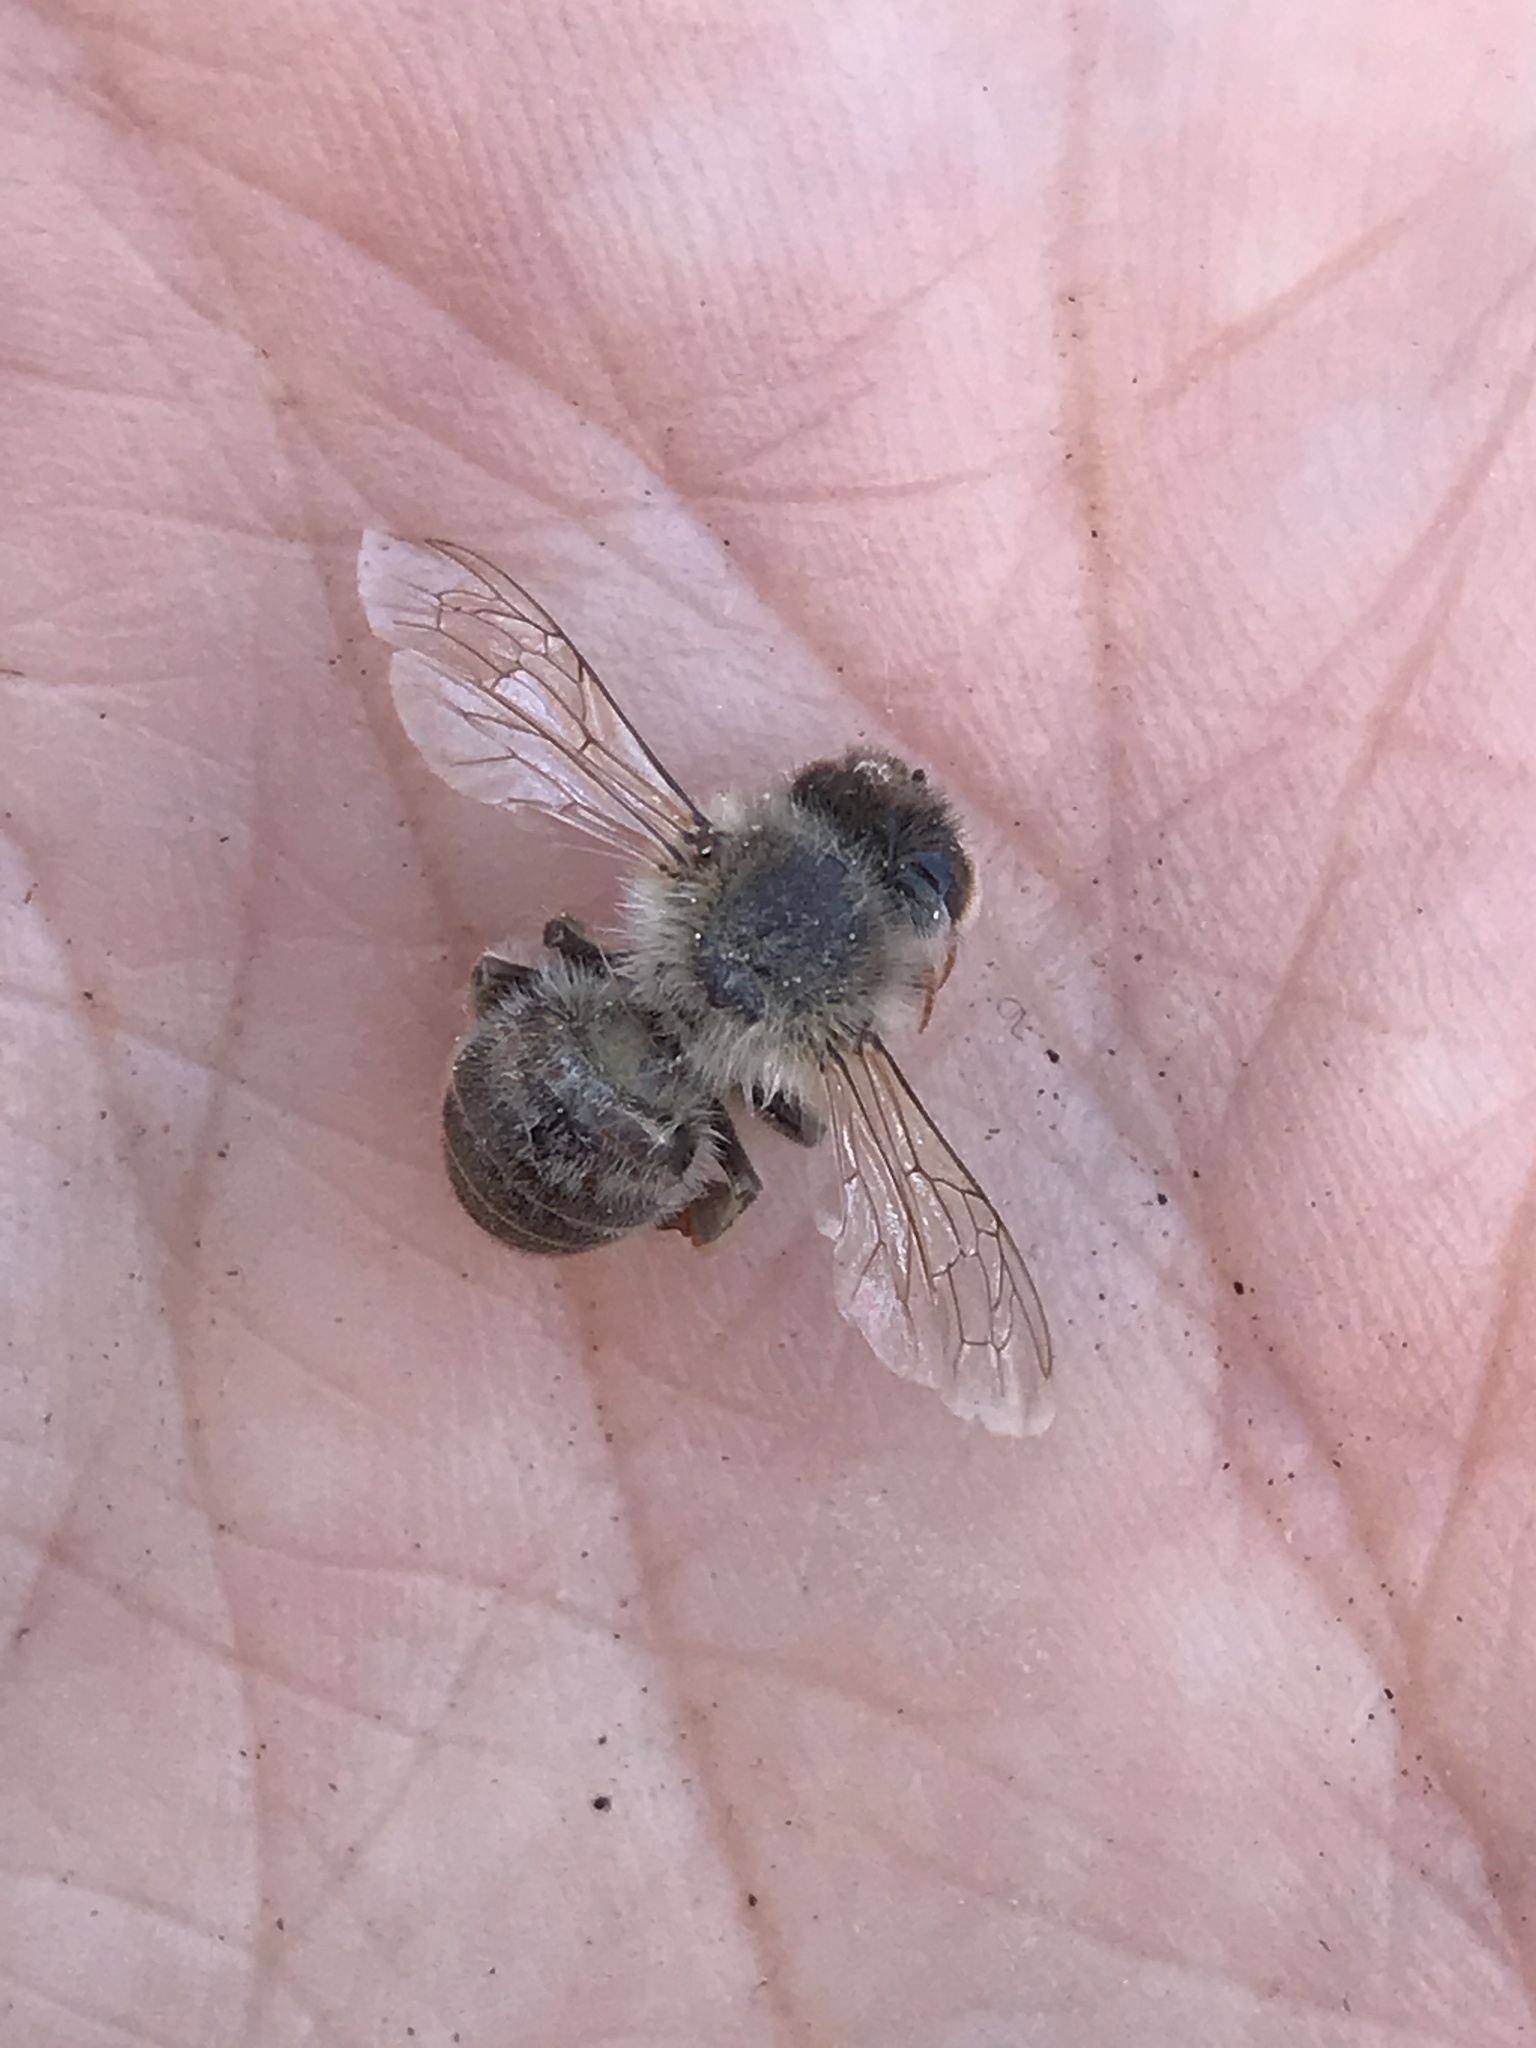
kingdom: Animalia
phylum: Arthropoda
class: Insecta
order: Hymenoptera
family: Apidae
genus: Apis
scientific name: Apis mellifera
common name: Honey bee
